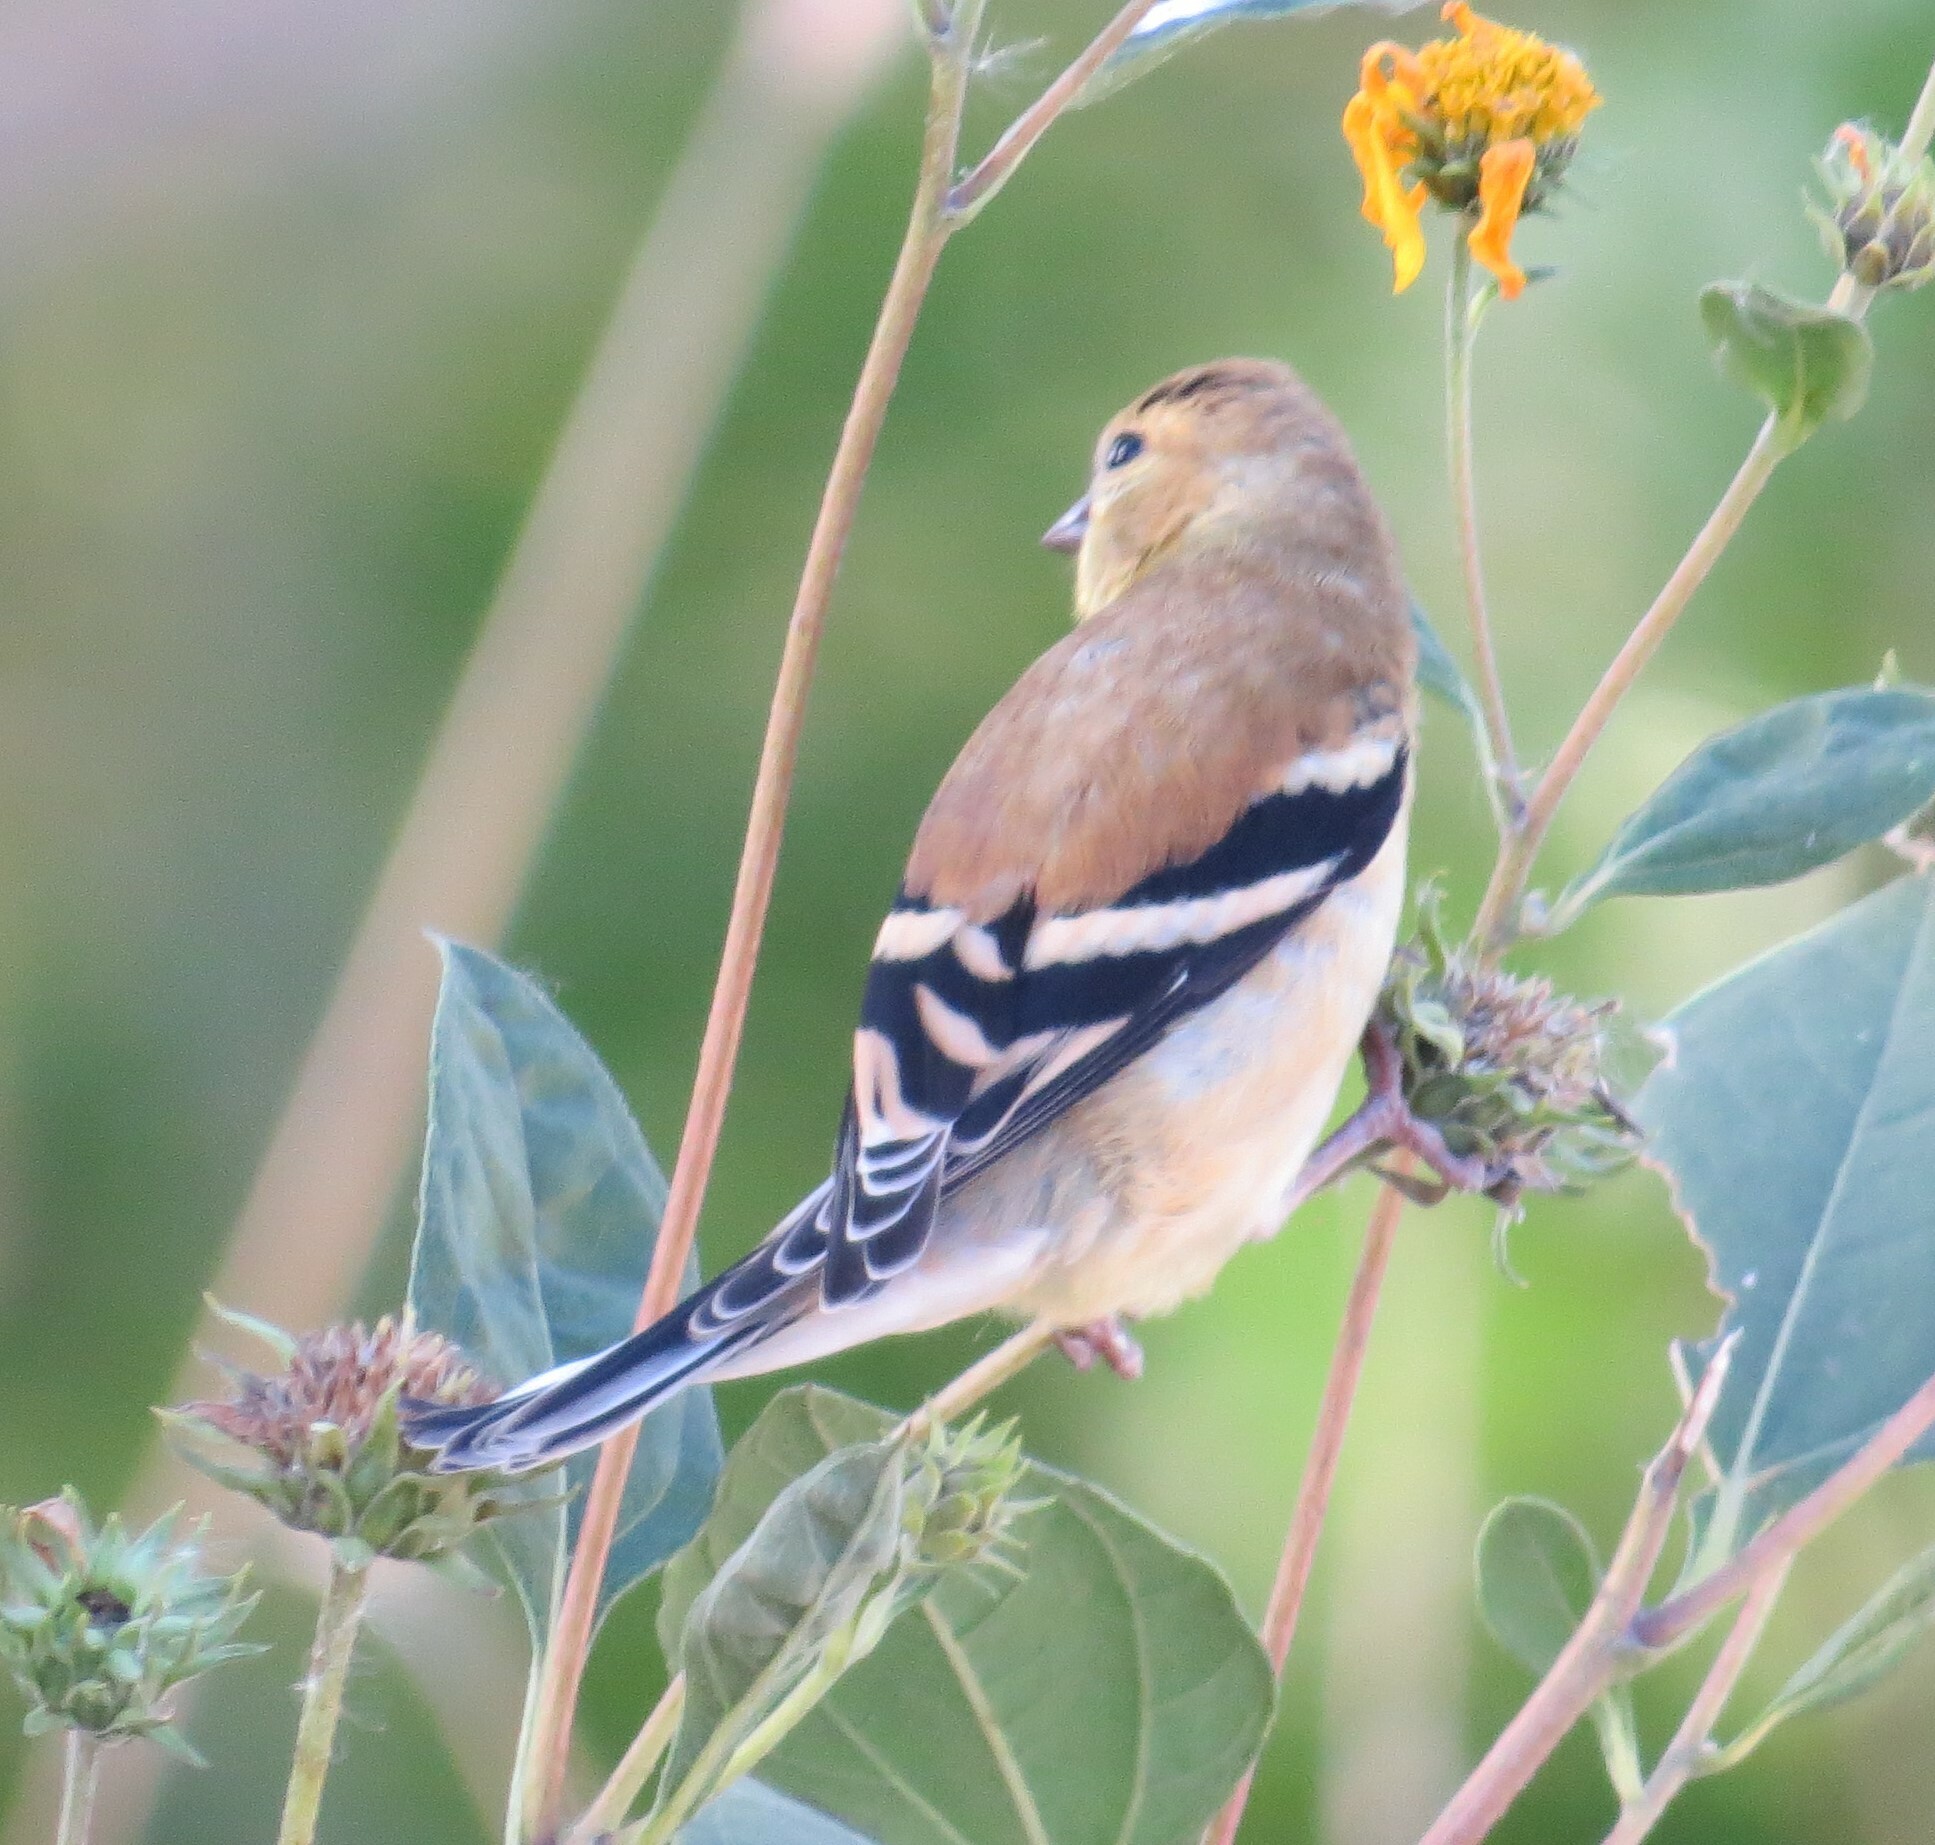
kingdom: Animalia
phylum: Chordata
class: Aves
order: Passeriformes
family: Fringillidae
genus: Spinus
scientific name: Spinus tristis
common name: American goldfinch
